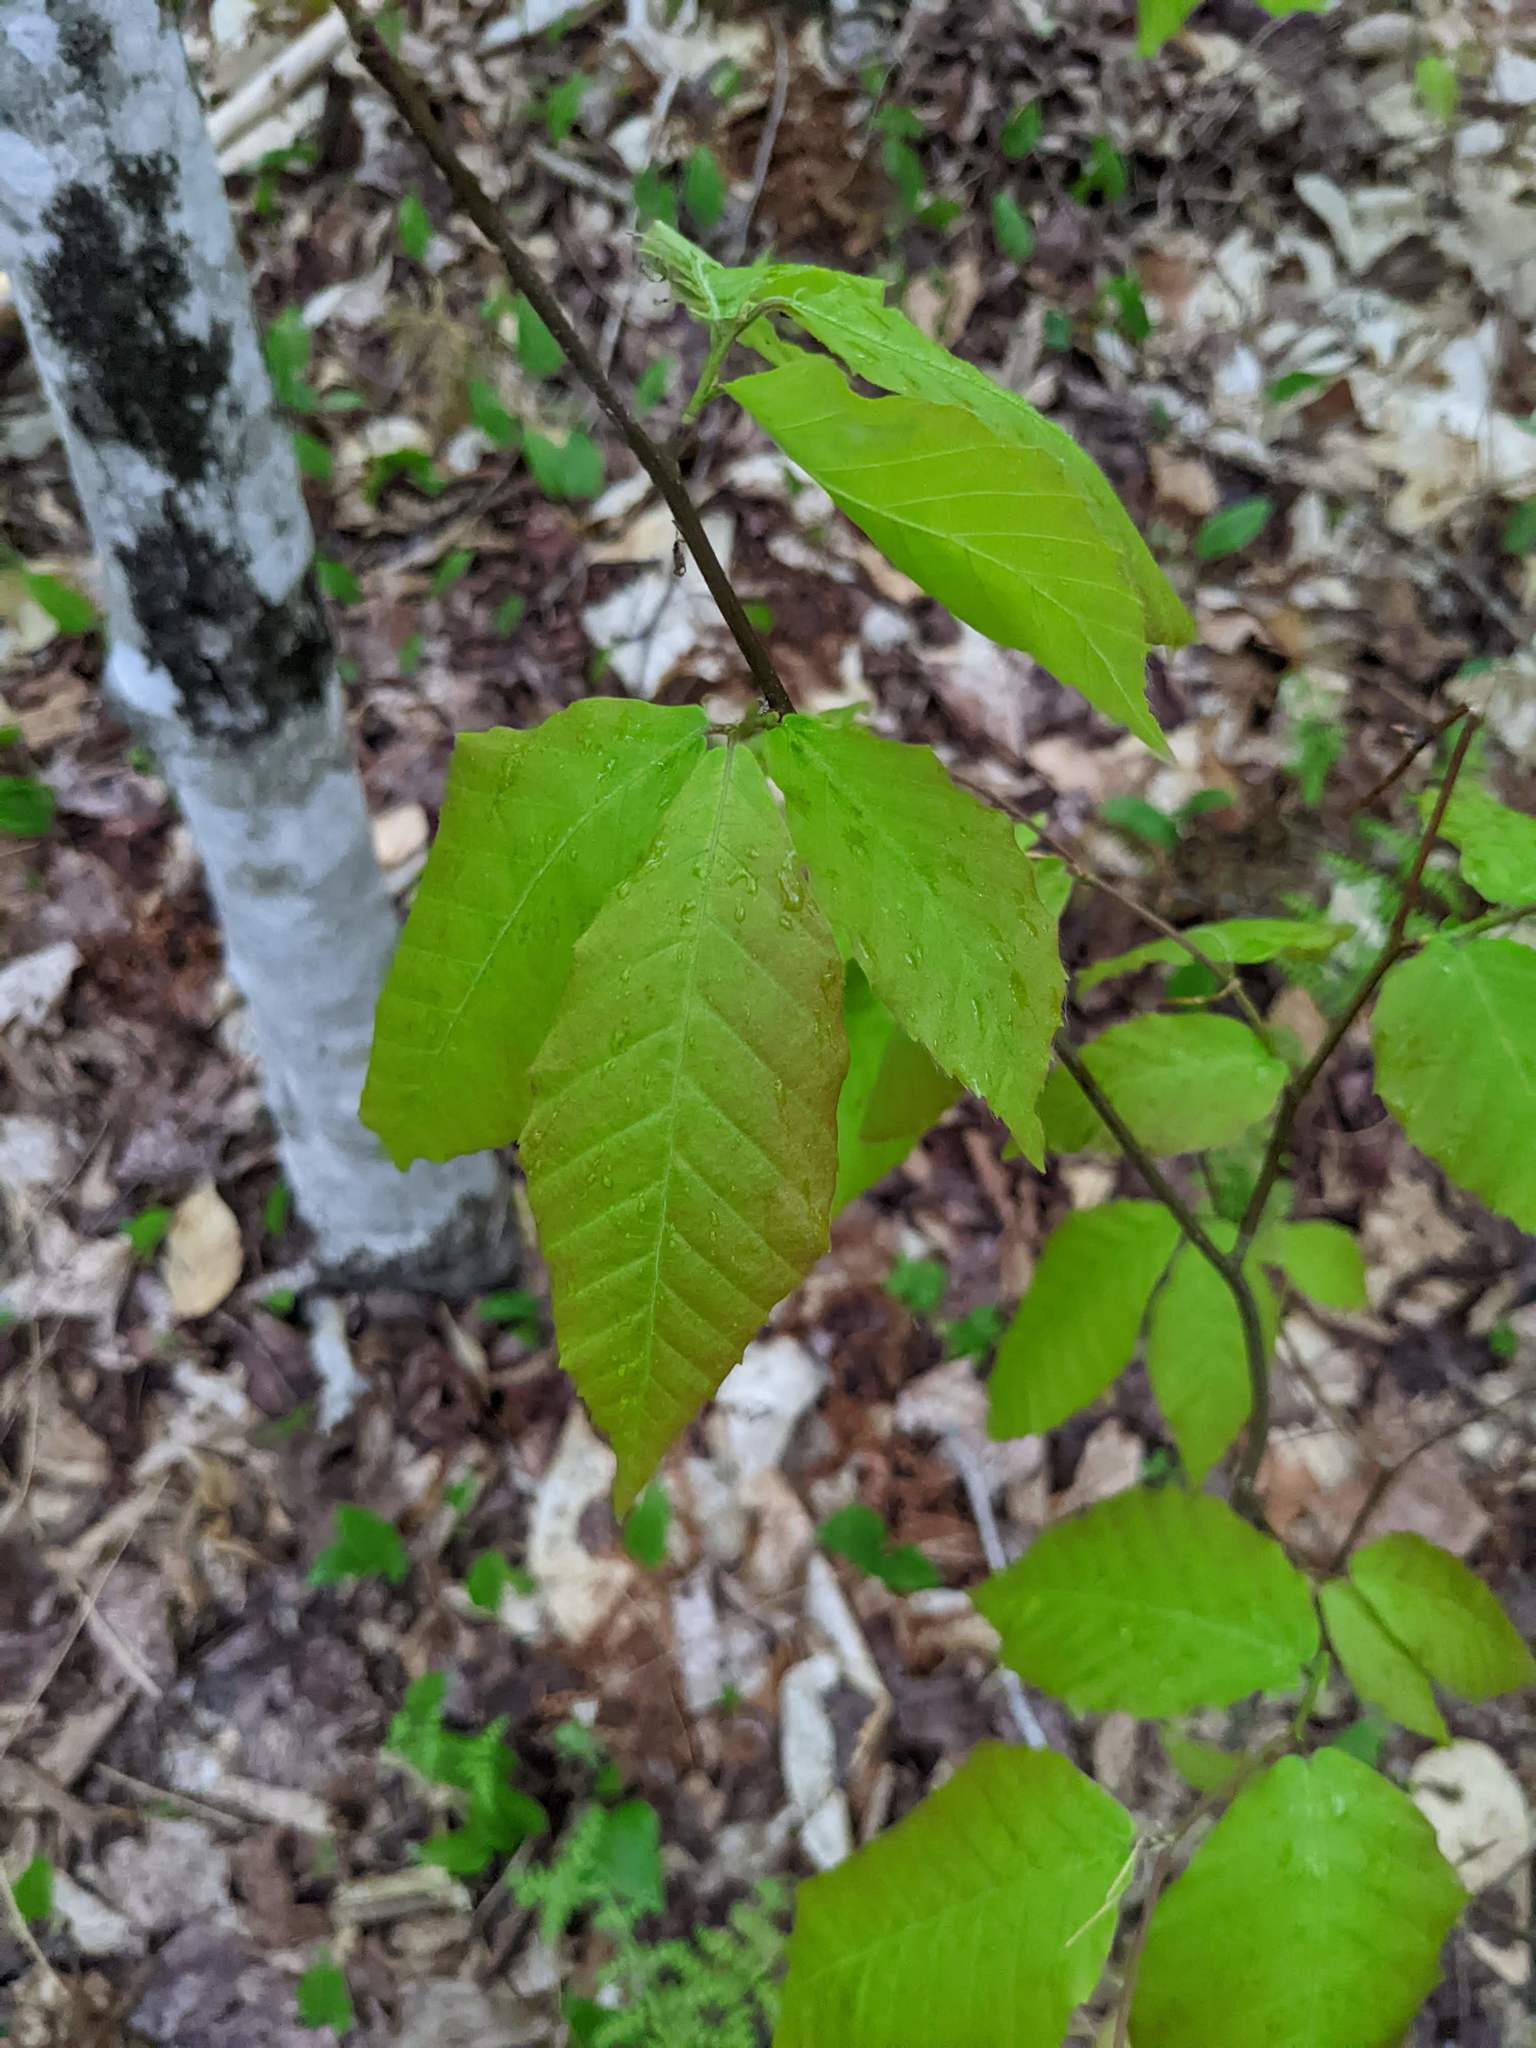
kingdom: Plantae
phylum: Tracheophyta
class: Magnoliopsida
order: Fagales
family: Fagaceae
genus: Fagus
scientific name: Fagus grandifolia
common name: American beech
